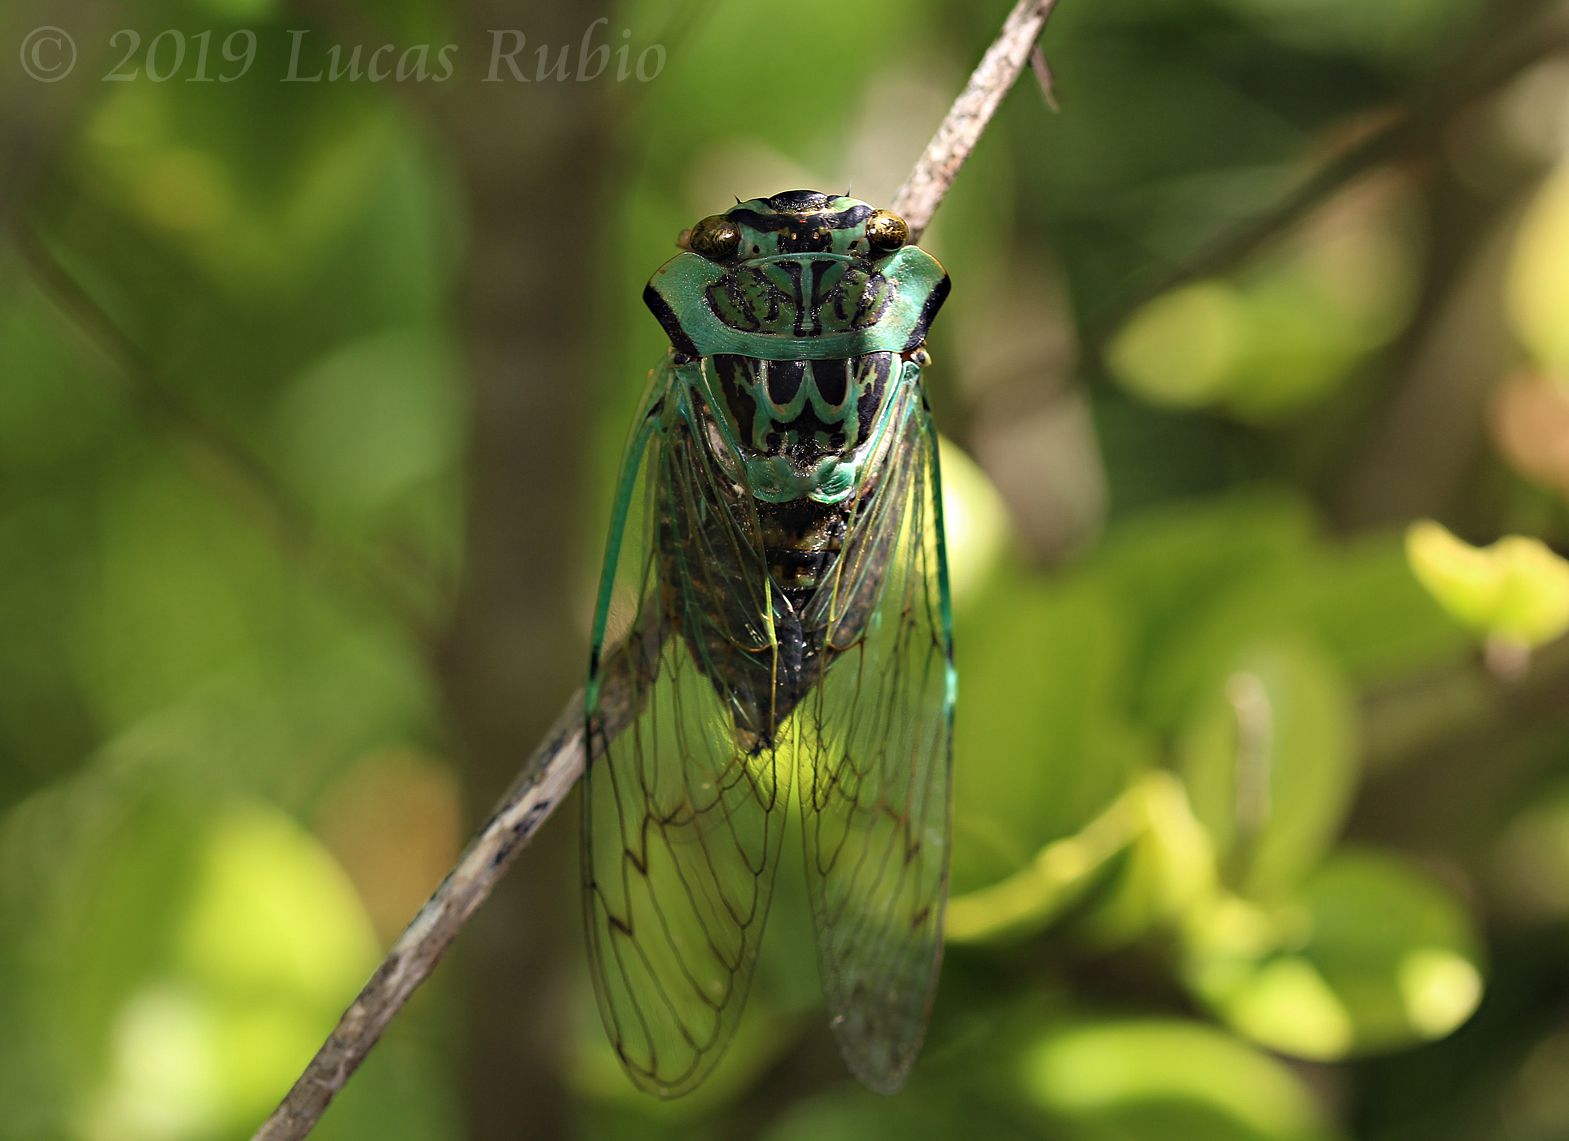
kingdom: Animalia
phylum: Arthropoda
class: Insecta
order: Hemiptera
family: Cicadidae
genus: Adusella
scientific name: Adusella insignifera
